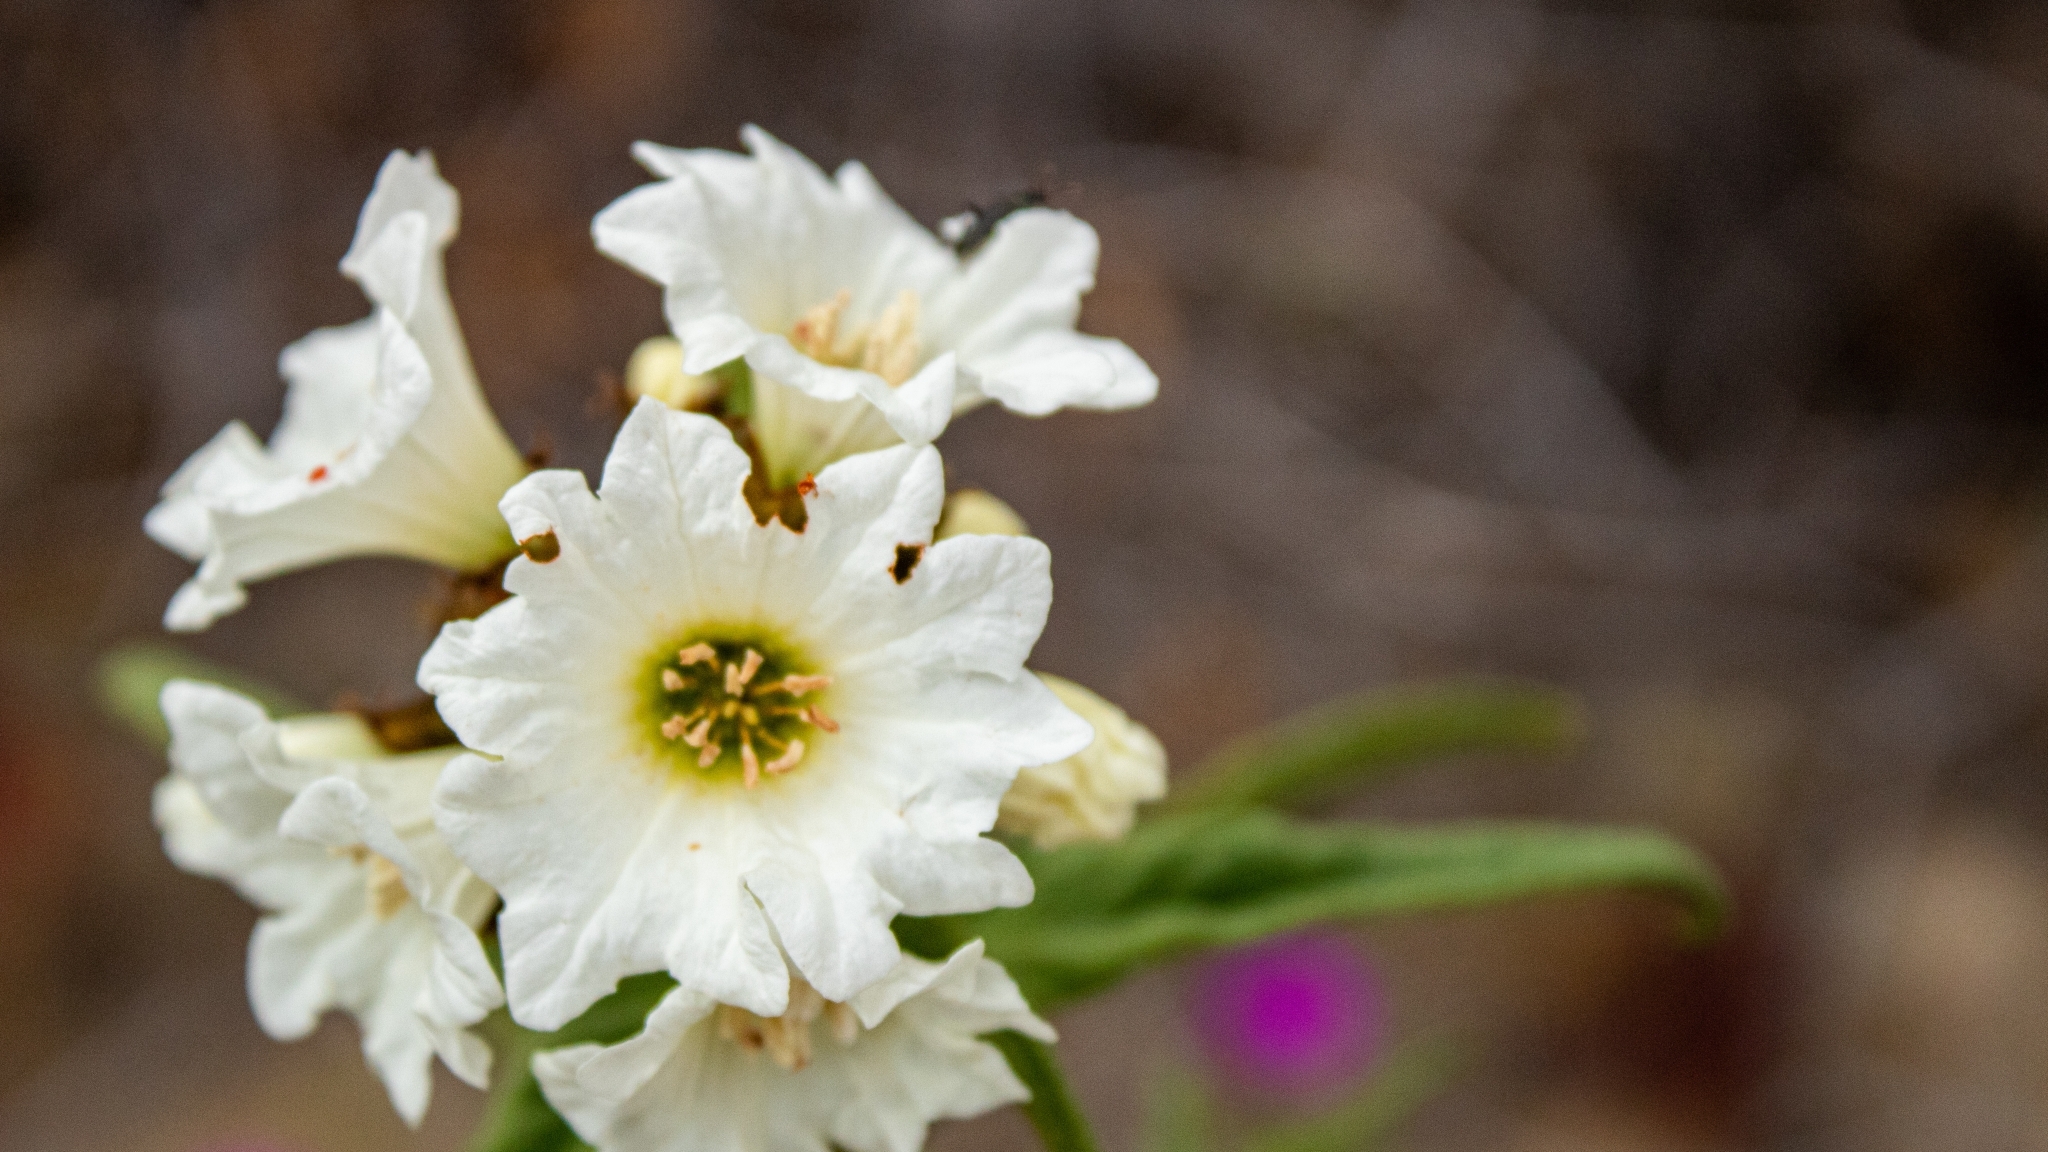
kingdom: Plantae
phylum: Tracheophyta
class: Magnoliopsida
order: Boraginales
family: Cordiaceae
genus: Cordia
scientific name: Cordia decandra
